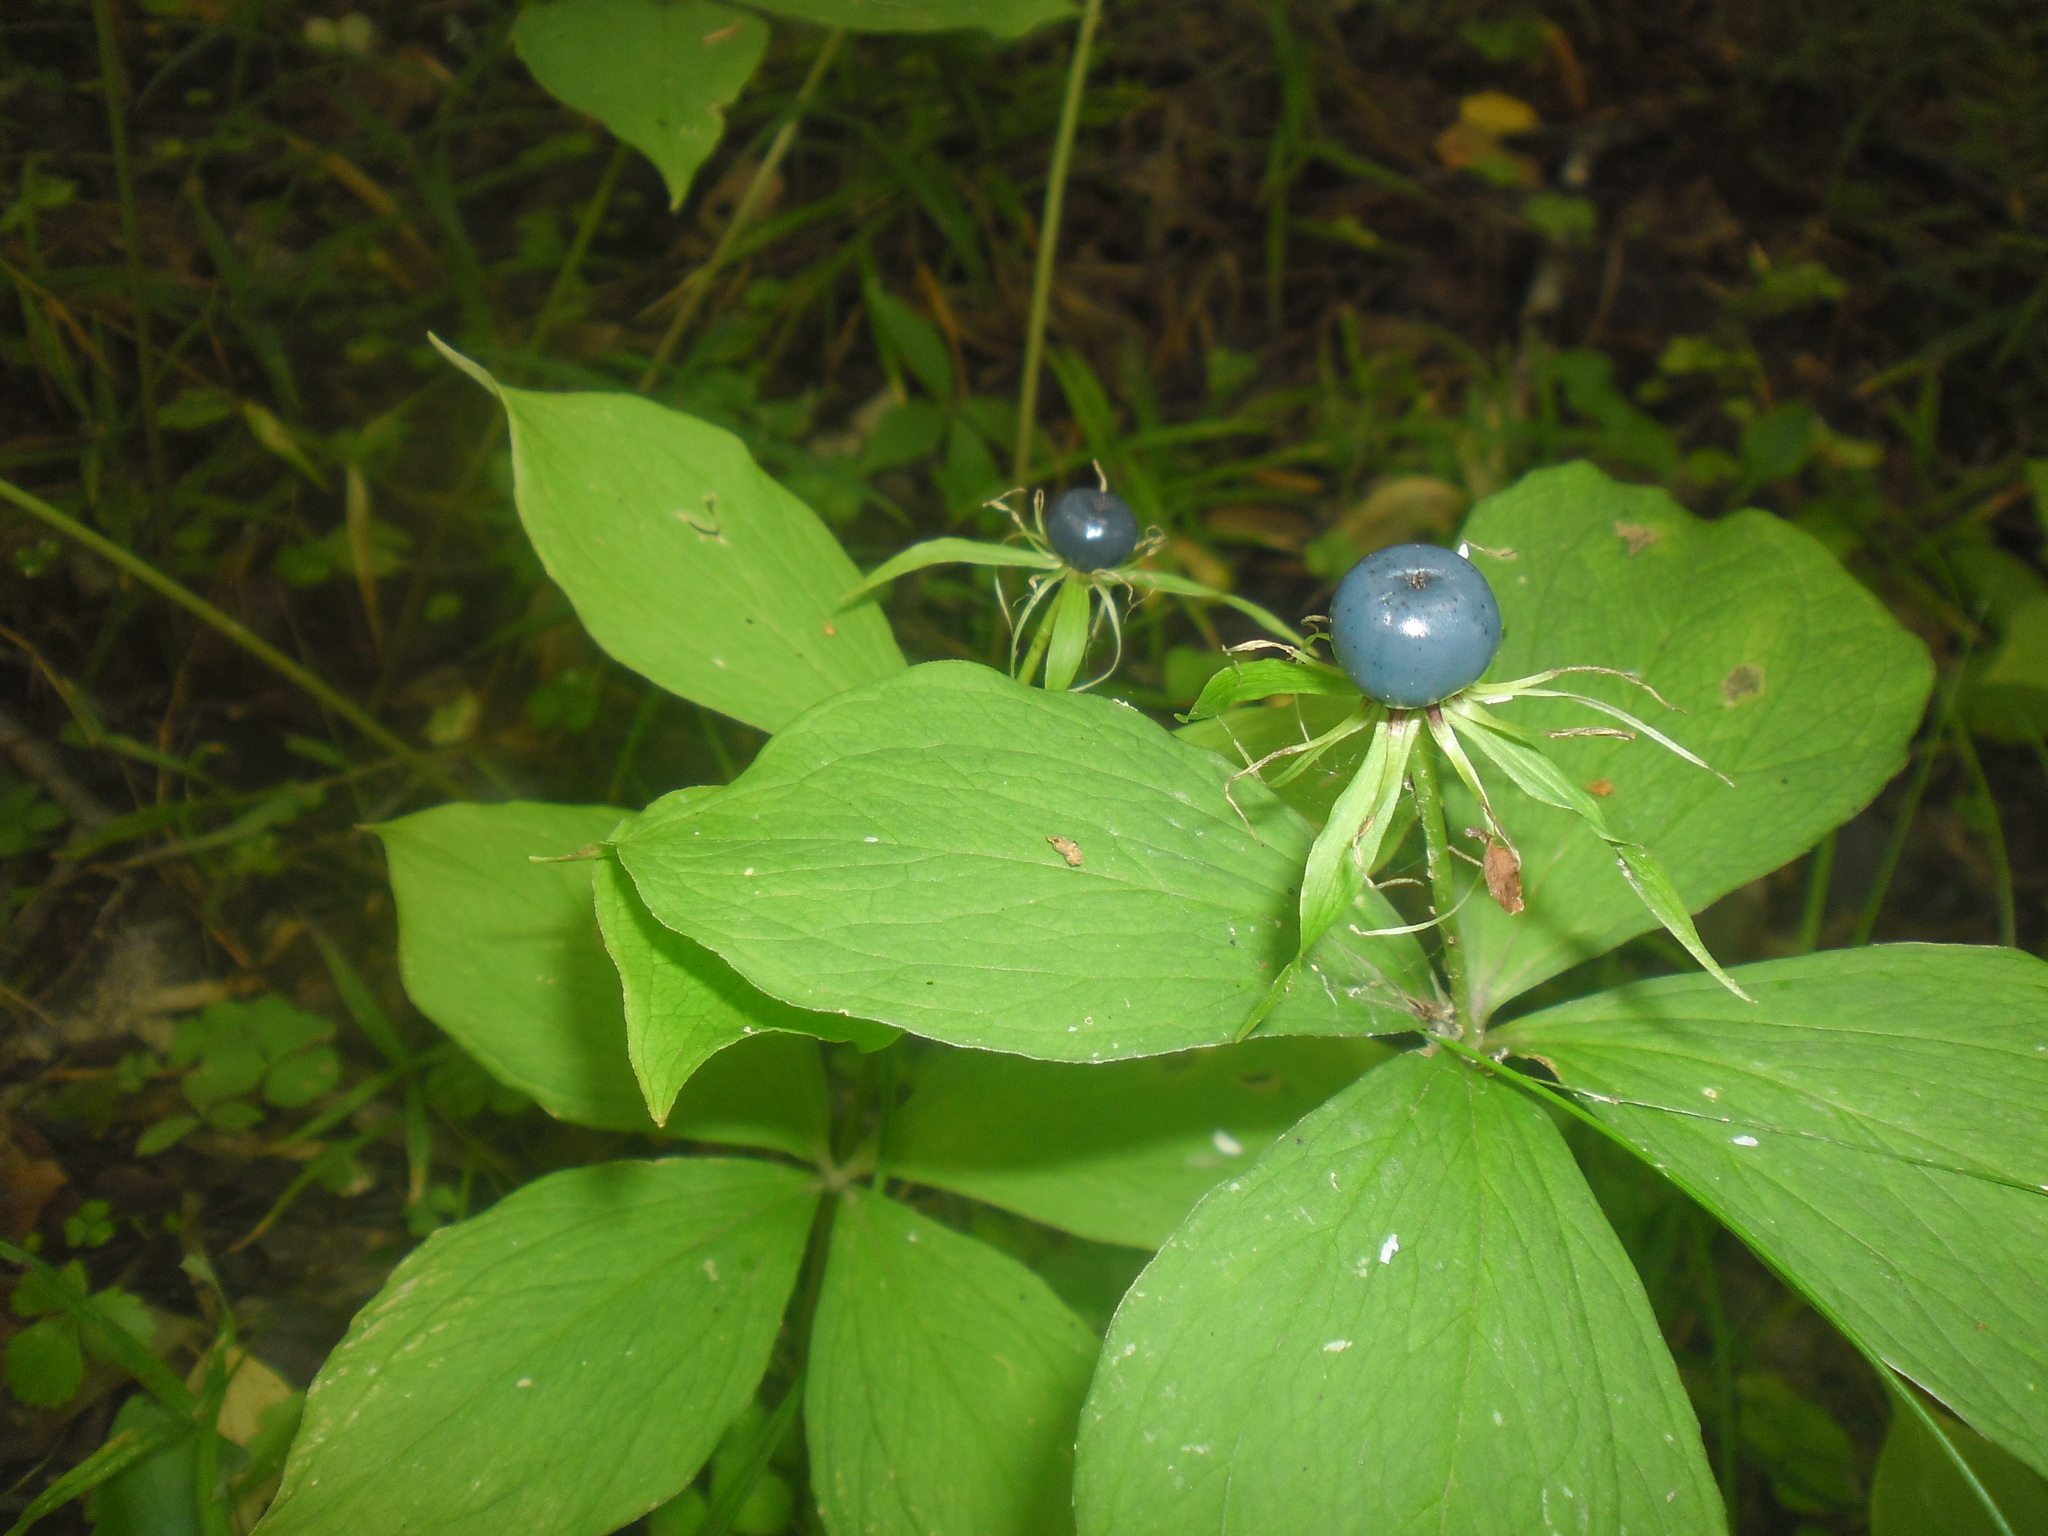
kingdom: Plantae
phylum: Tracheophyta
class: Liliopsida
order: Liliales
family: Melanthiaceae
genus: Paris
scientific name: Paris quadrifolia
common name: Herb-paris
